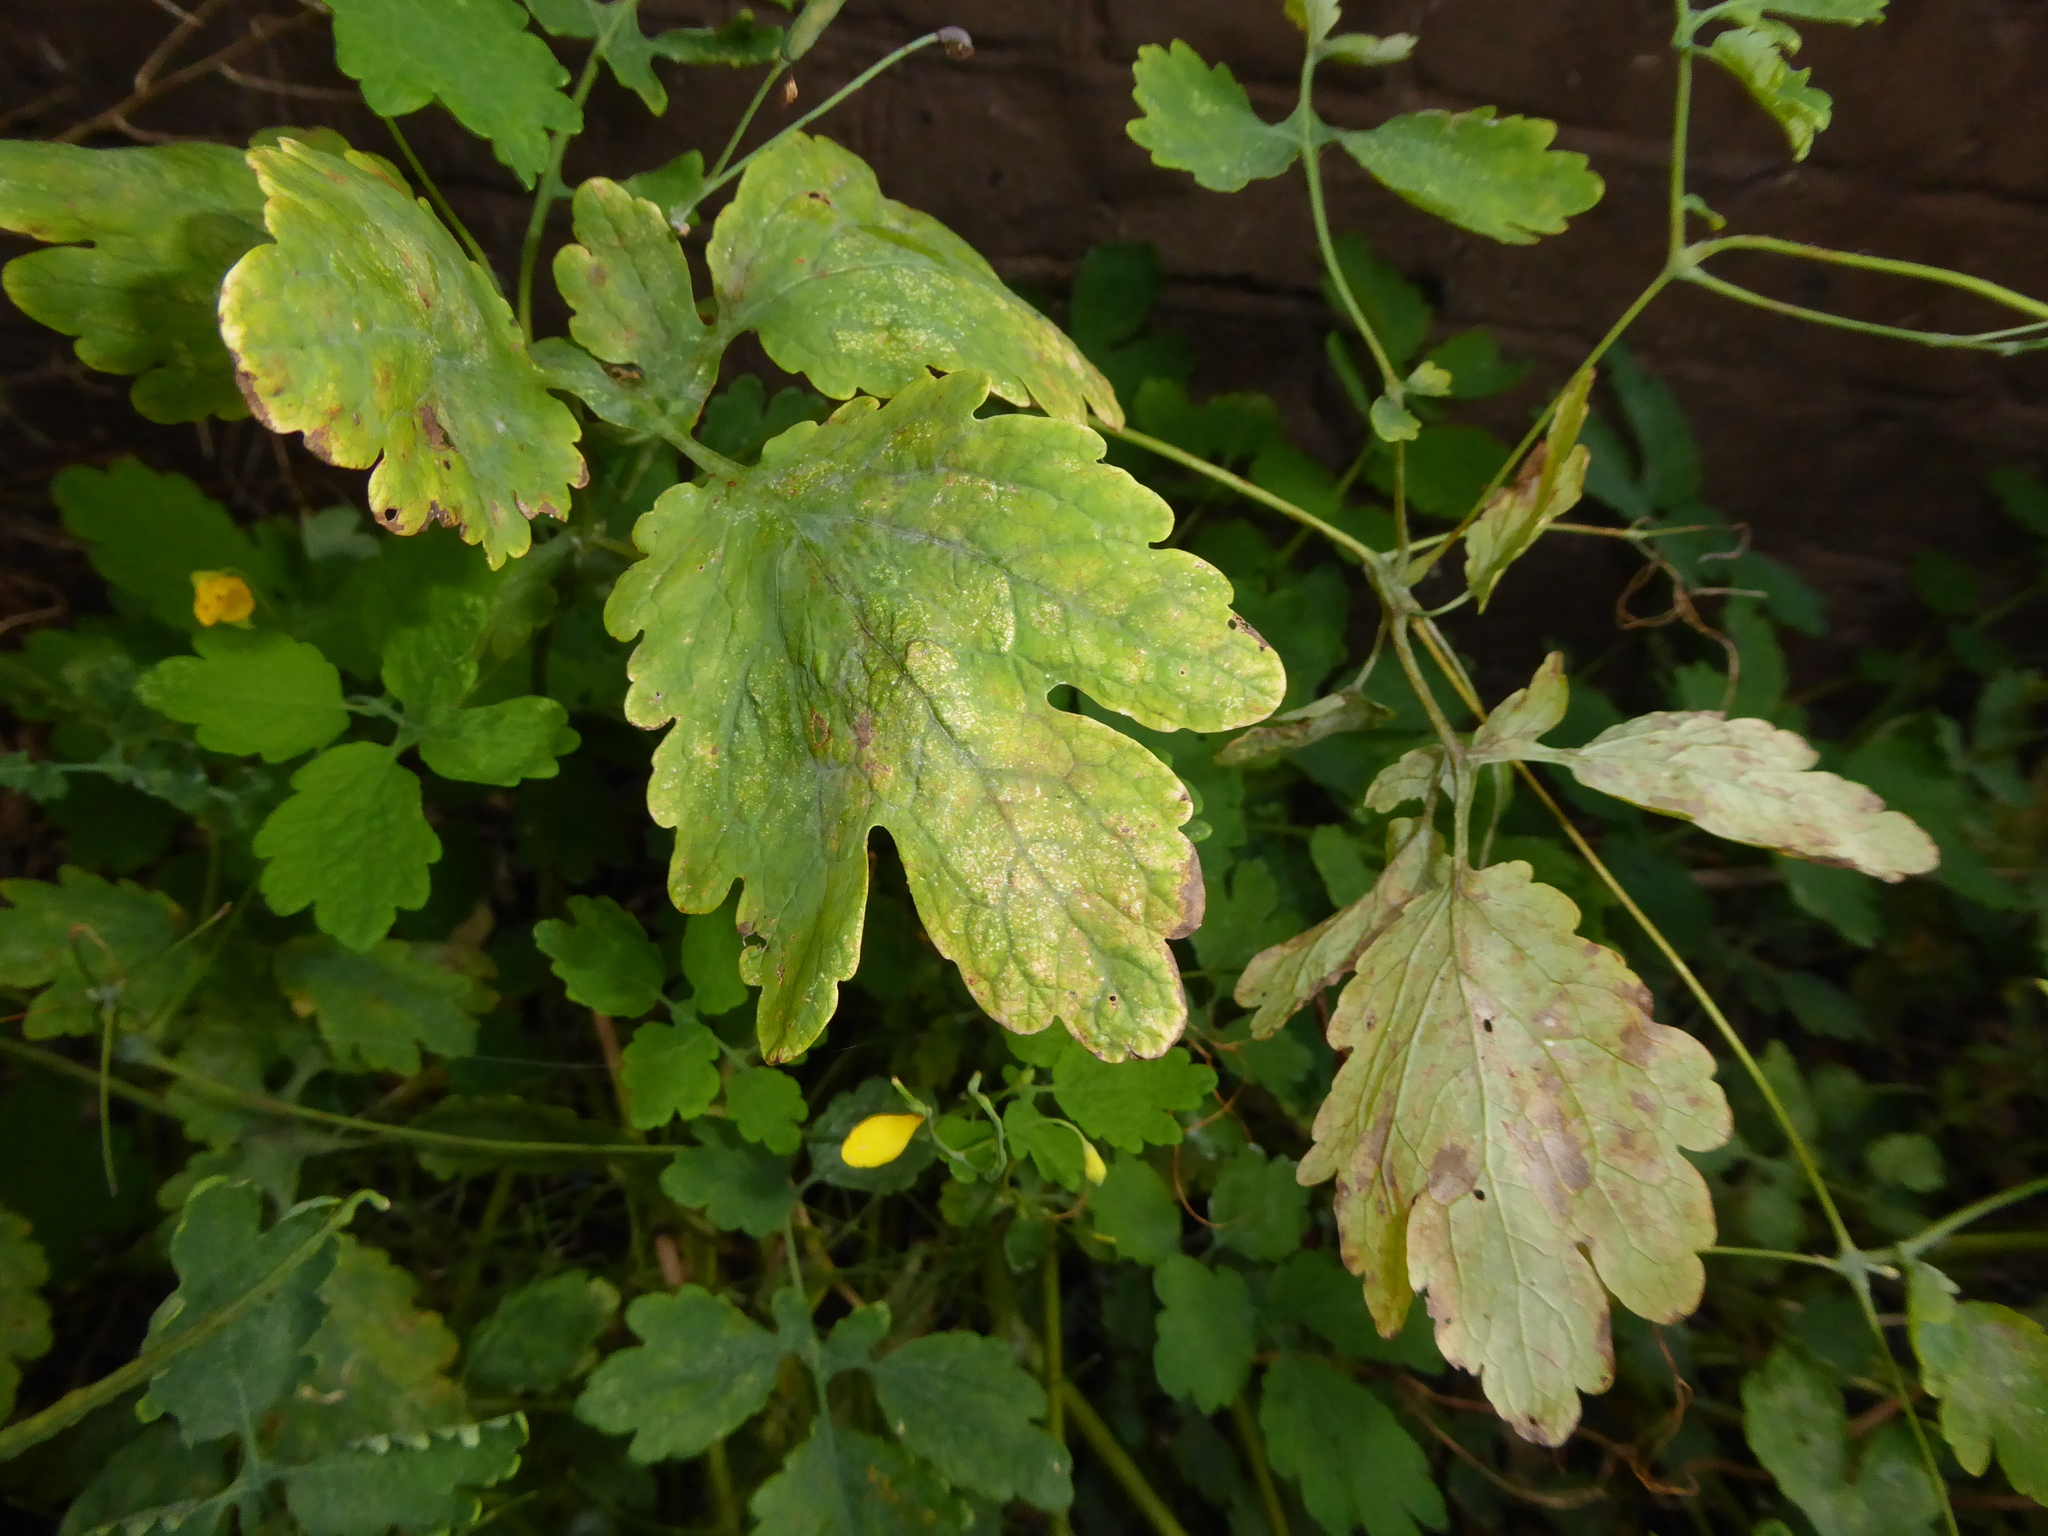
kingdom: Fungi
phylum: Ascomycota
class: Leotiomycetes
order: Helotiales
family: Erysiphaceae
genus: Erysiphe
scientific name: Erysiphe macleayae
